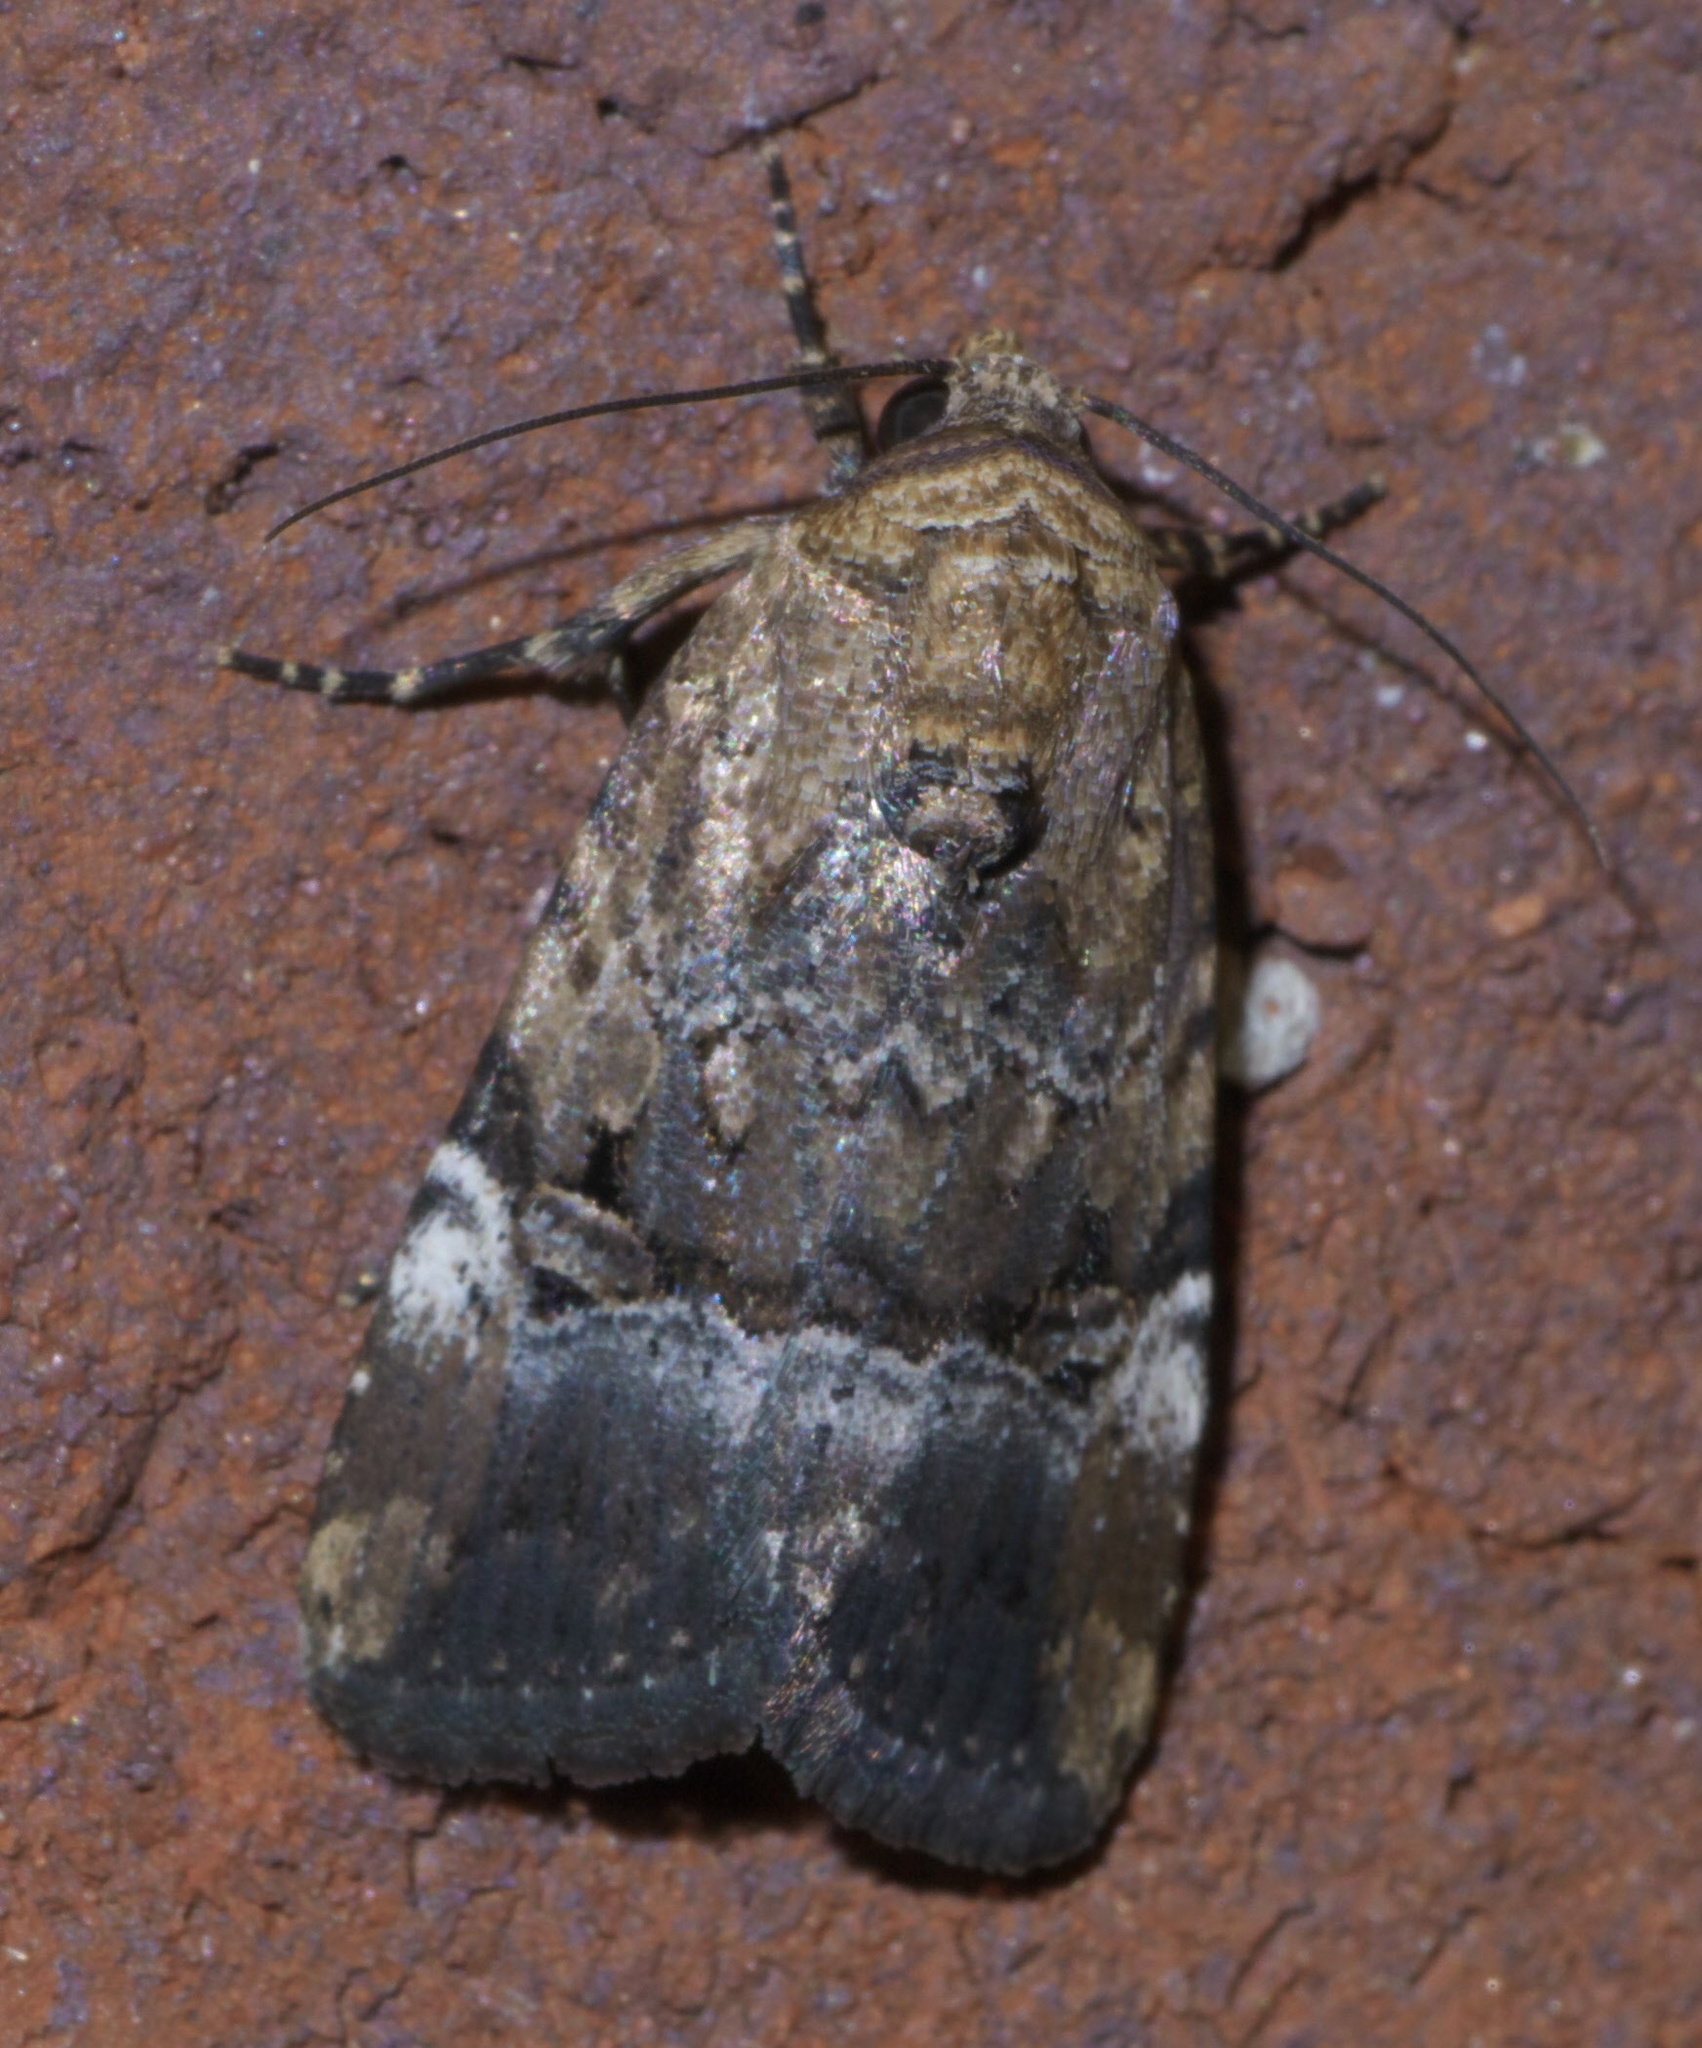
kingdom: Animalia
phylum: Arthropoda
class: Insecta
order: Lepidoptera
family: Noctuidae
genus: Elaphria
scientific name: Elaphria chalcedonia
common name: Chalcedony midget
